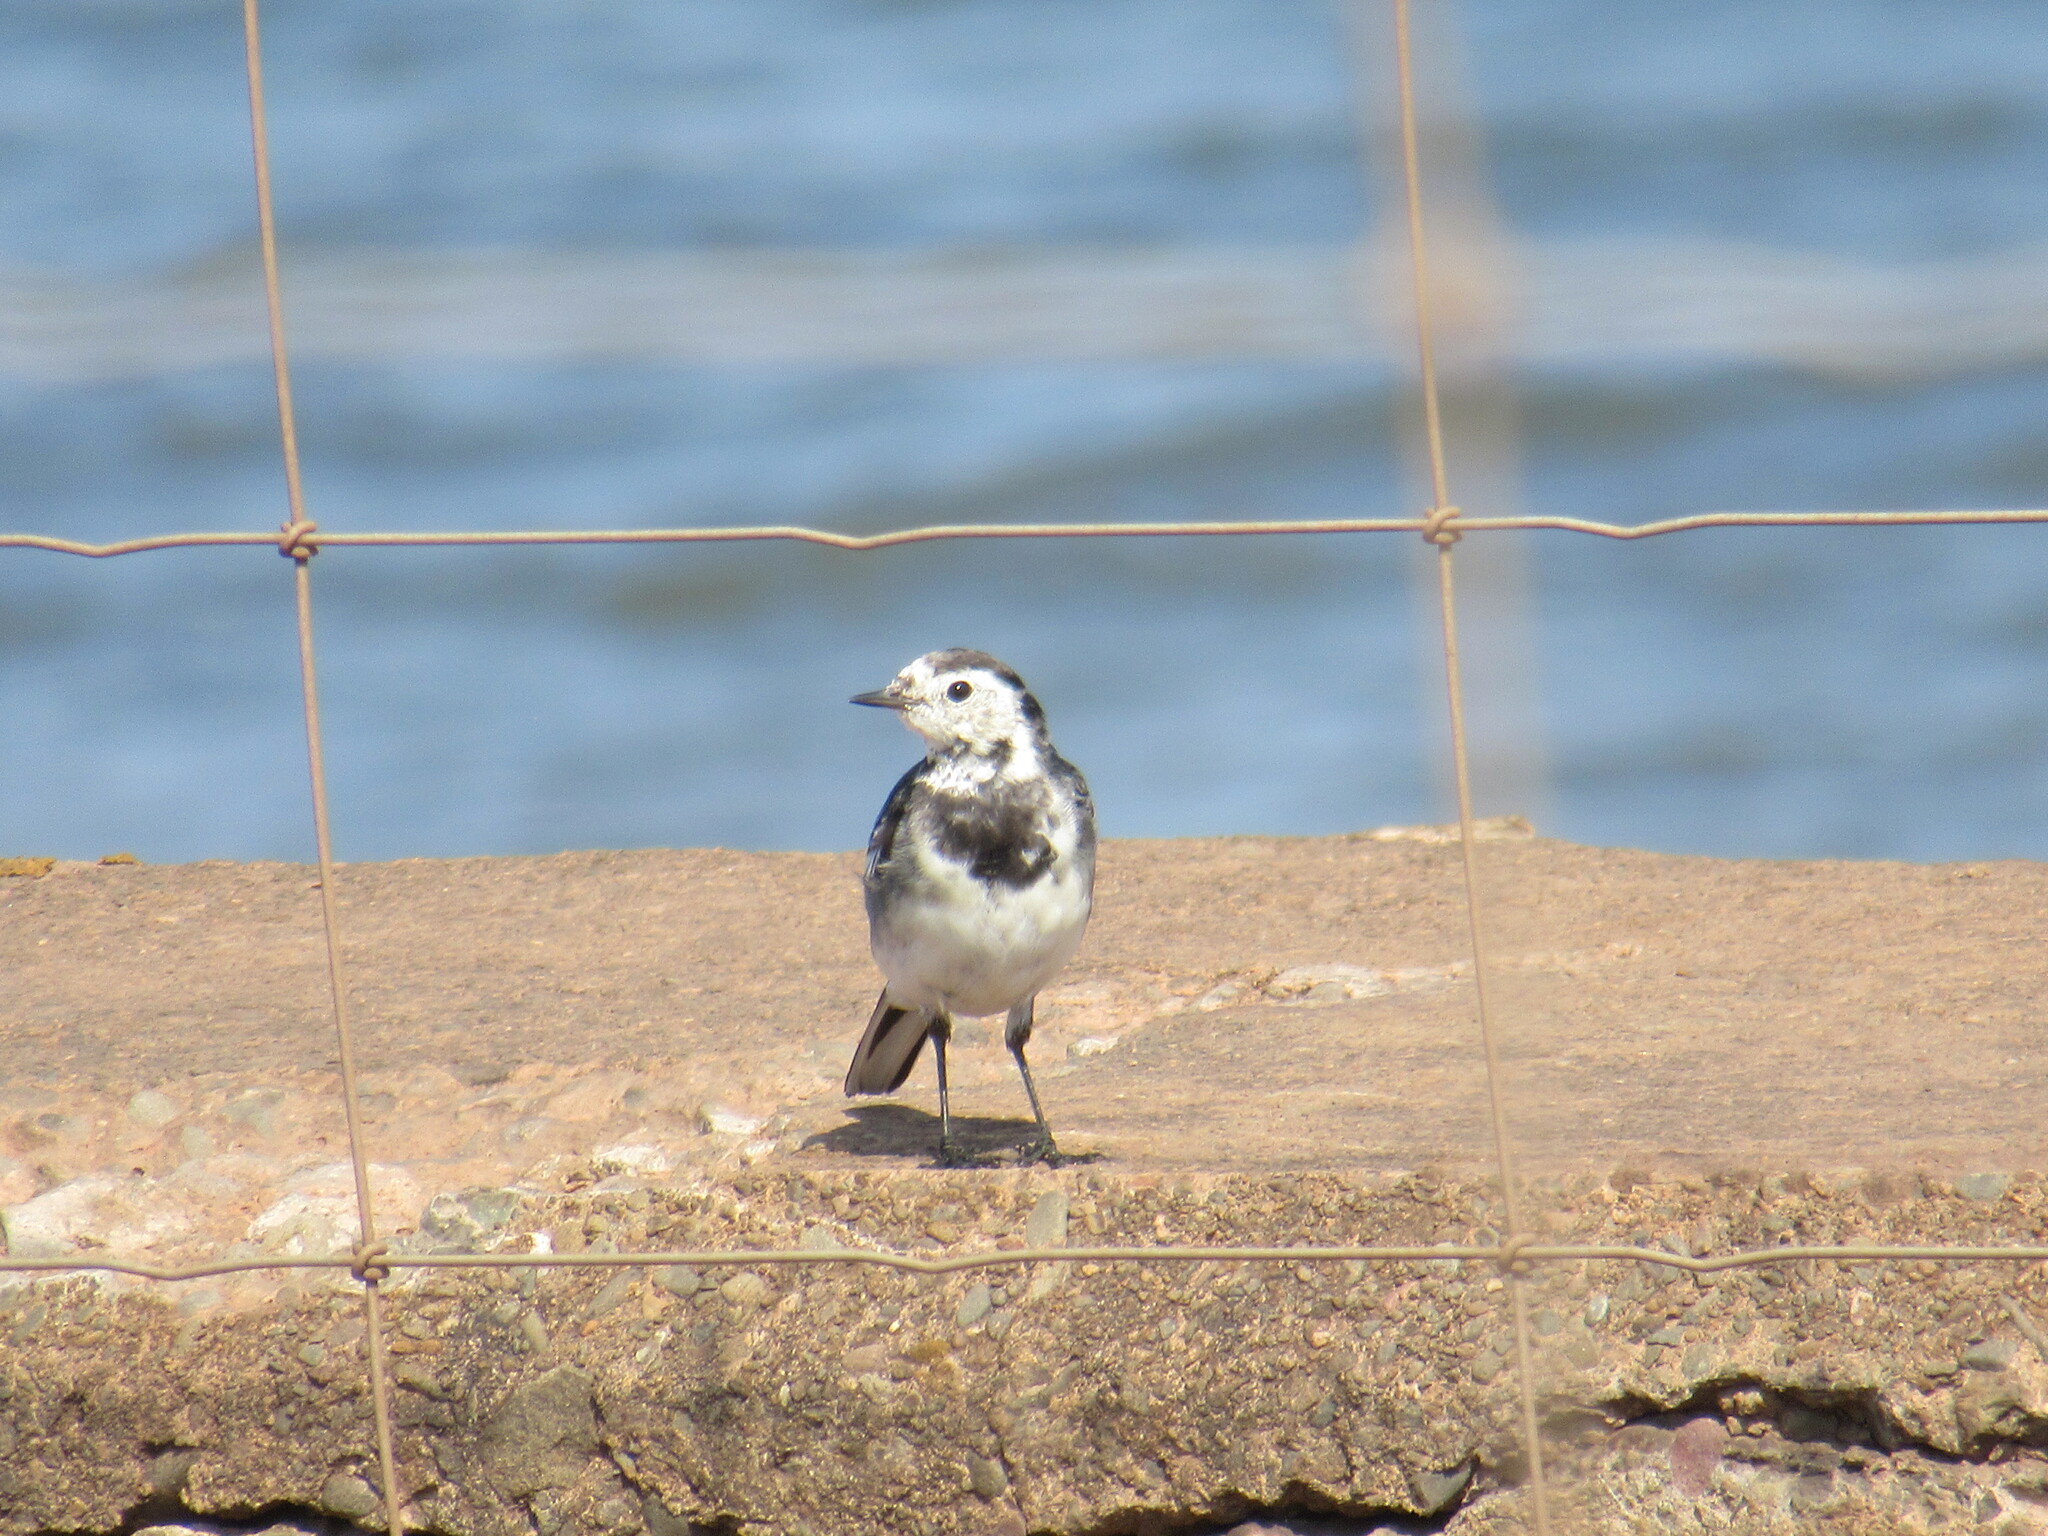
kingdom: Animalia
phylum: Chordata
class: Aves
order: Passeriformes
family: Motacillidae
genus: Motacilla
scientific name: Motacilla alba
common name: White wagtail
